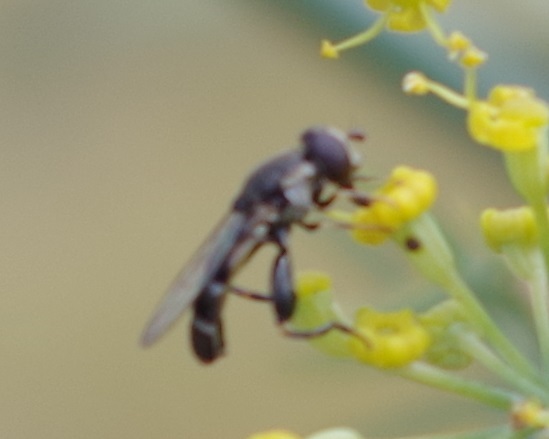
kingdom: Animalia
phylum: Arthropoda
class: Insecta
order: Diptera
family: Syrphidae
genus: Syritta
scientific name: Syritta pipiens
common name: Hover fly
